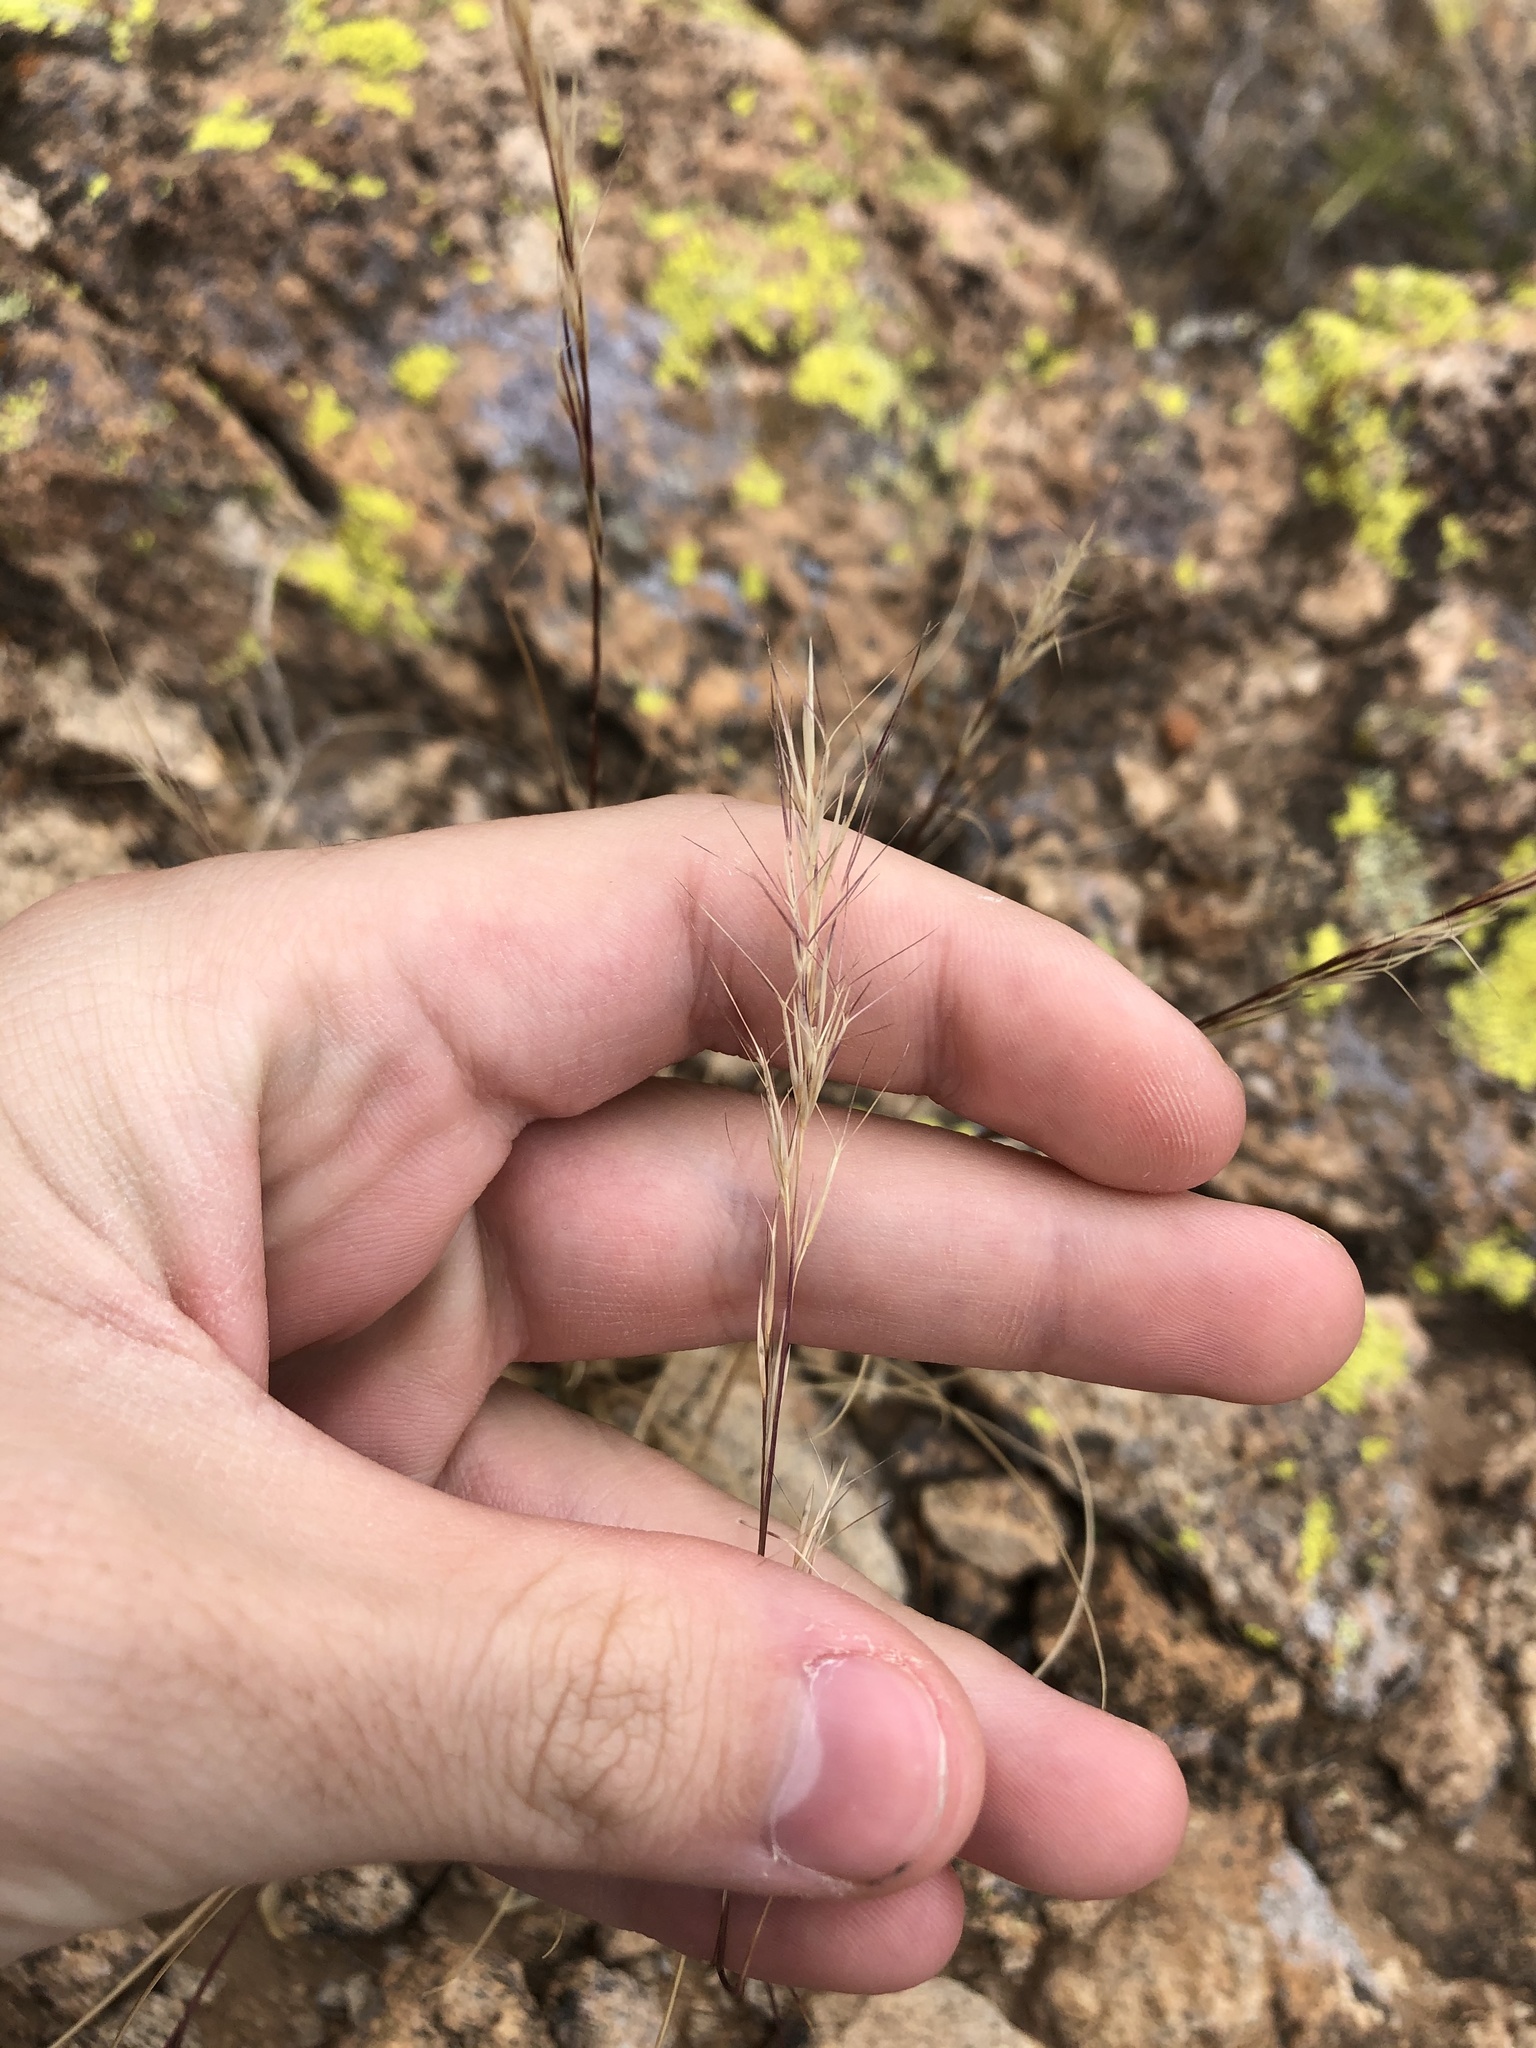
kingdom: Plantae
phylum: Tracheophyta
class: Liliopsida
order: Poales
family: Poaceae
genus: Aristida
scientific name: Aristida adscensionis
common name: Sixweeks threeawn
